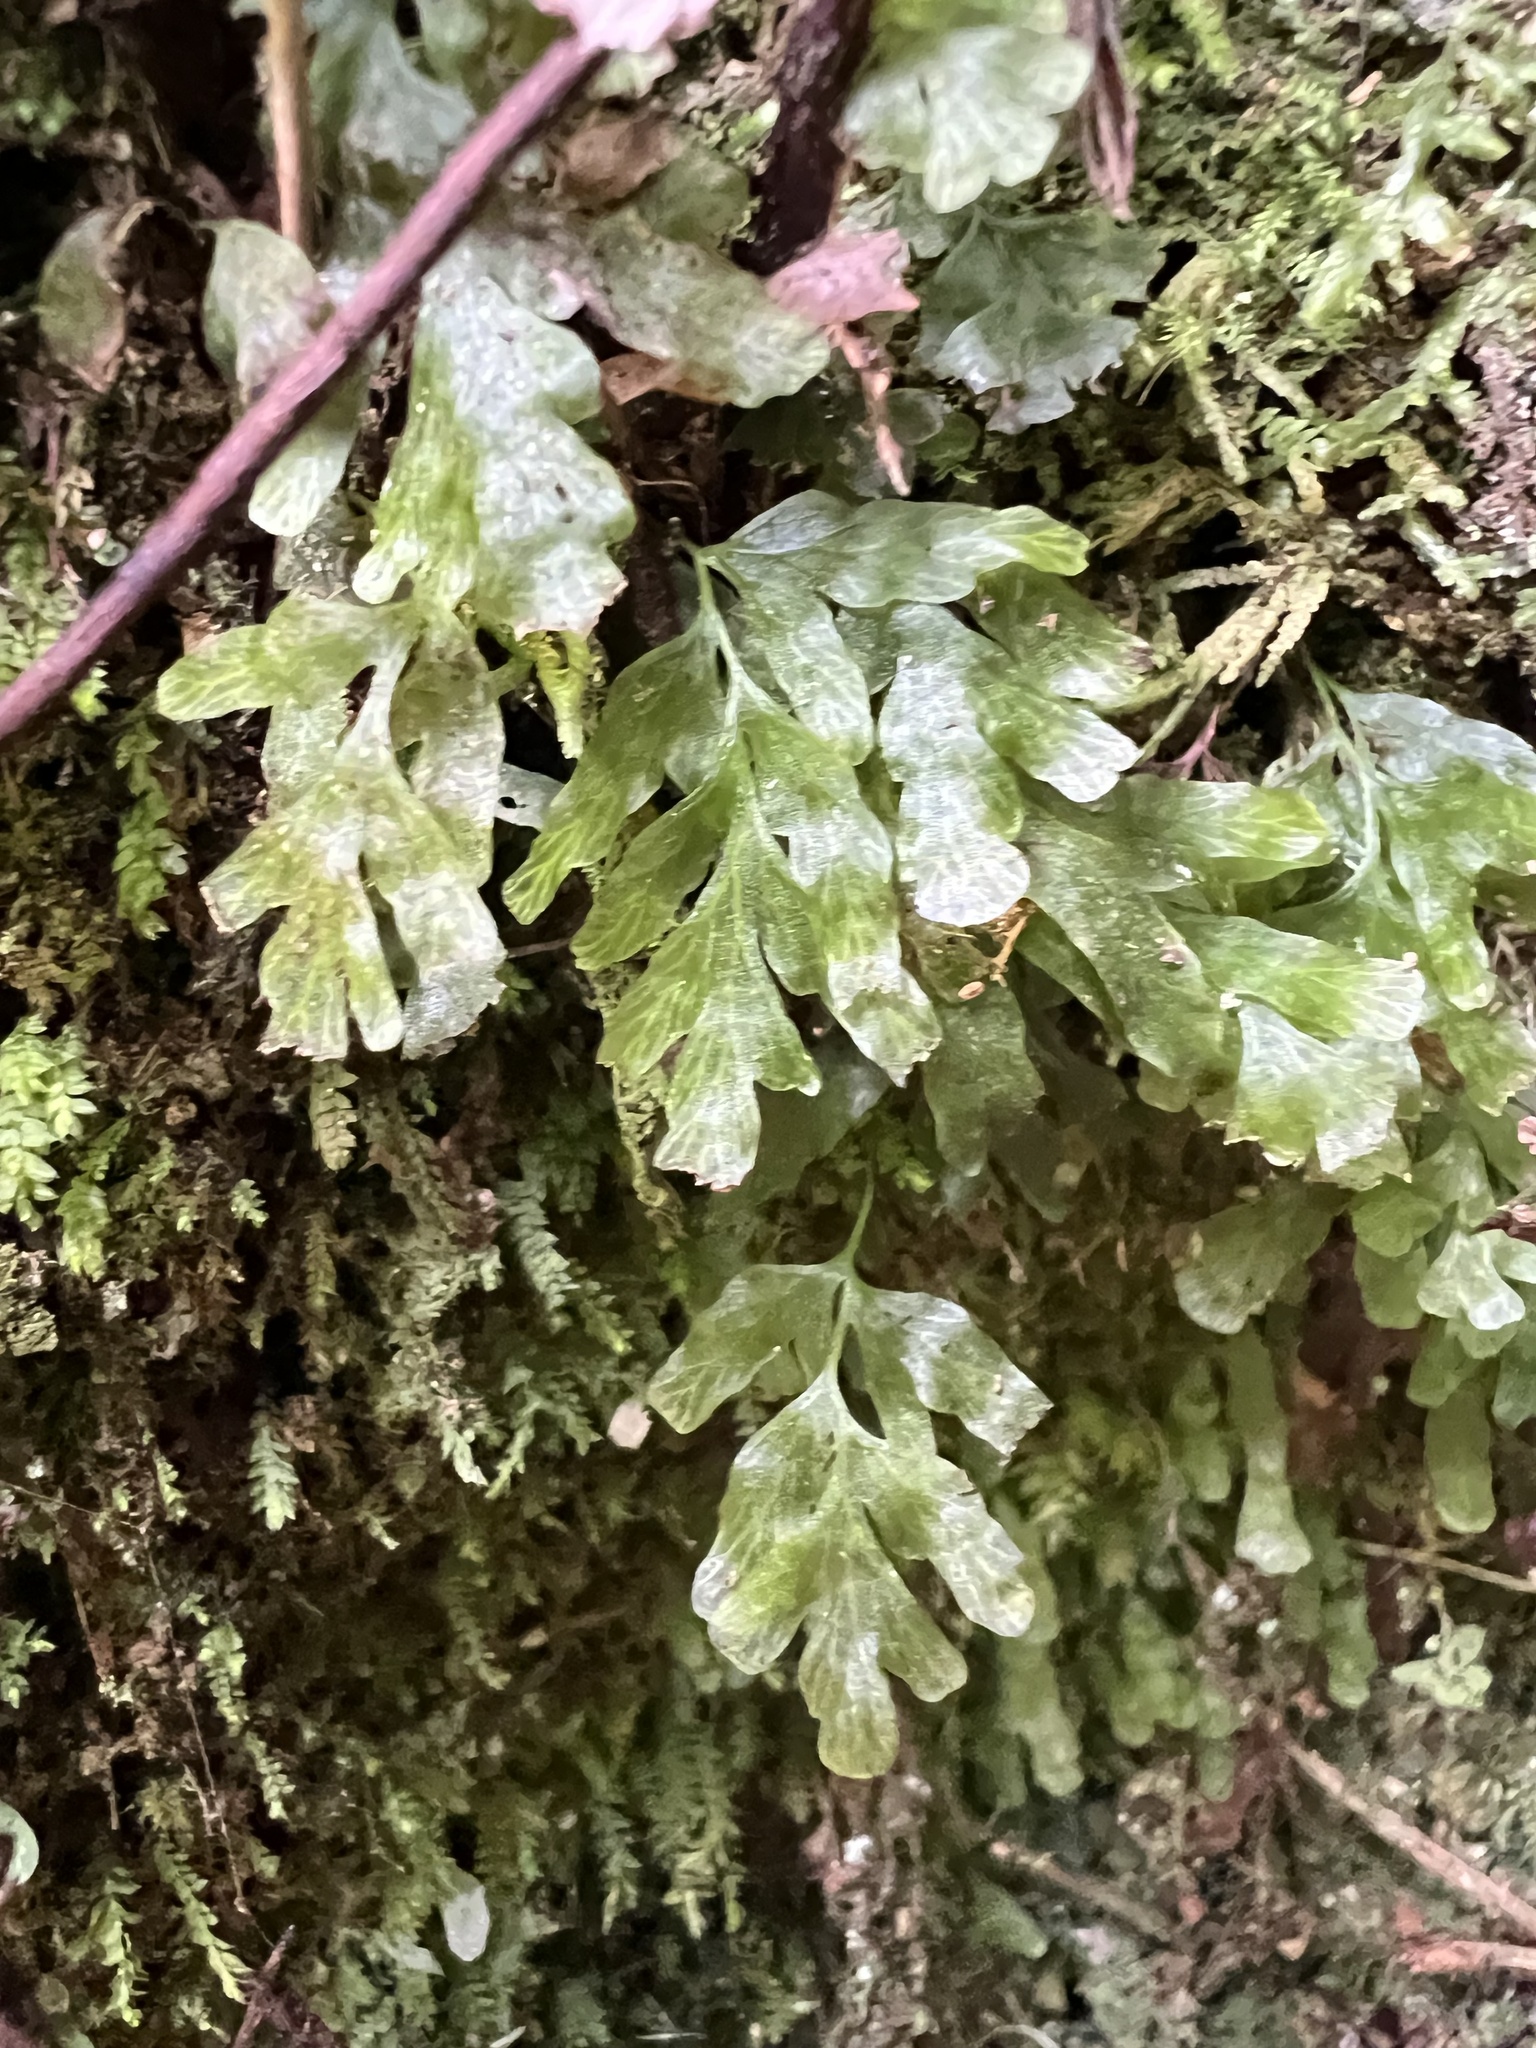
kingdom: Plantae
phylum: Tracheophyta
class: Polypodiopsida
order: Hymenophyllales
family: Hymenophyllaceae
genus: Polyphlebium
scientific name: Polyphlebium venosum
